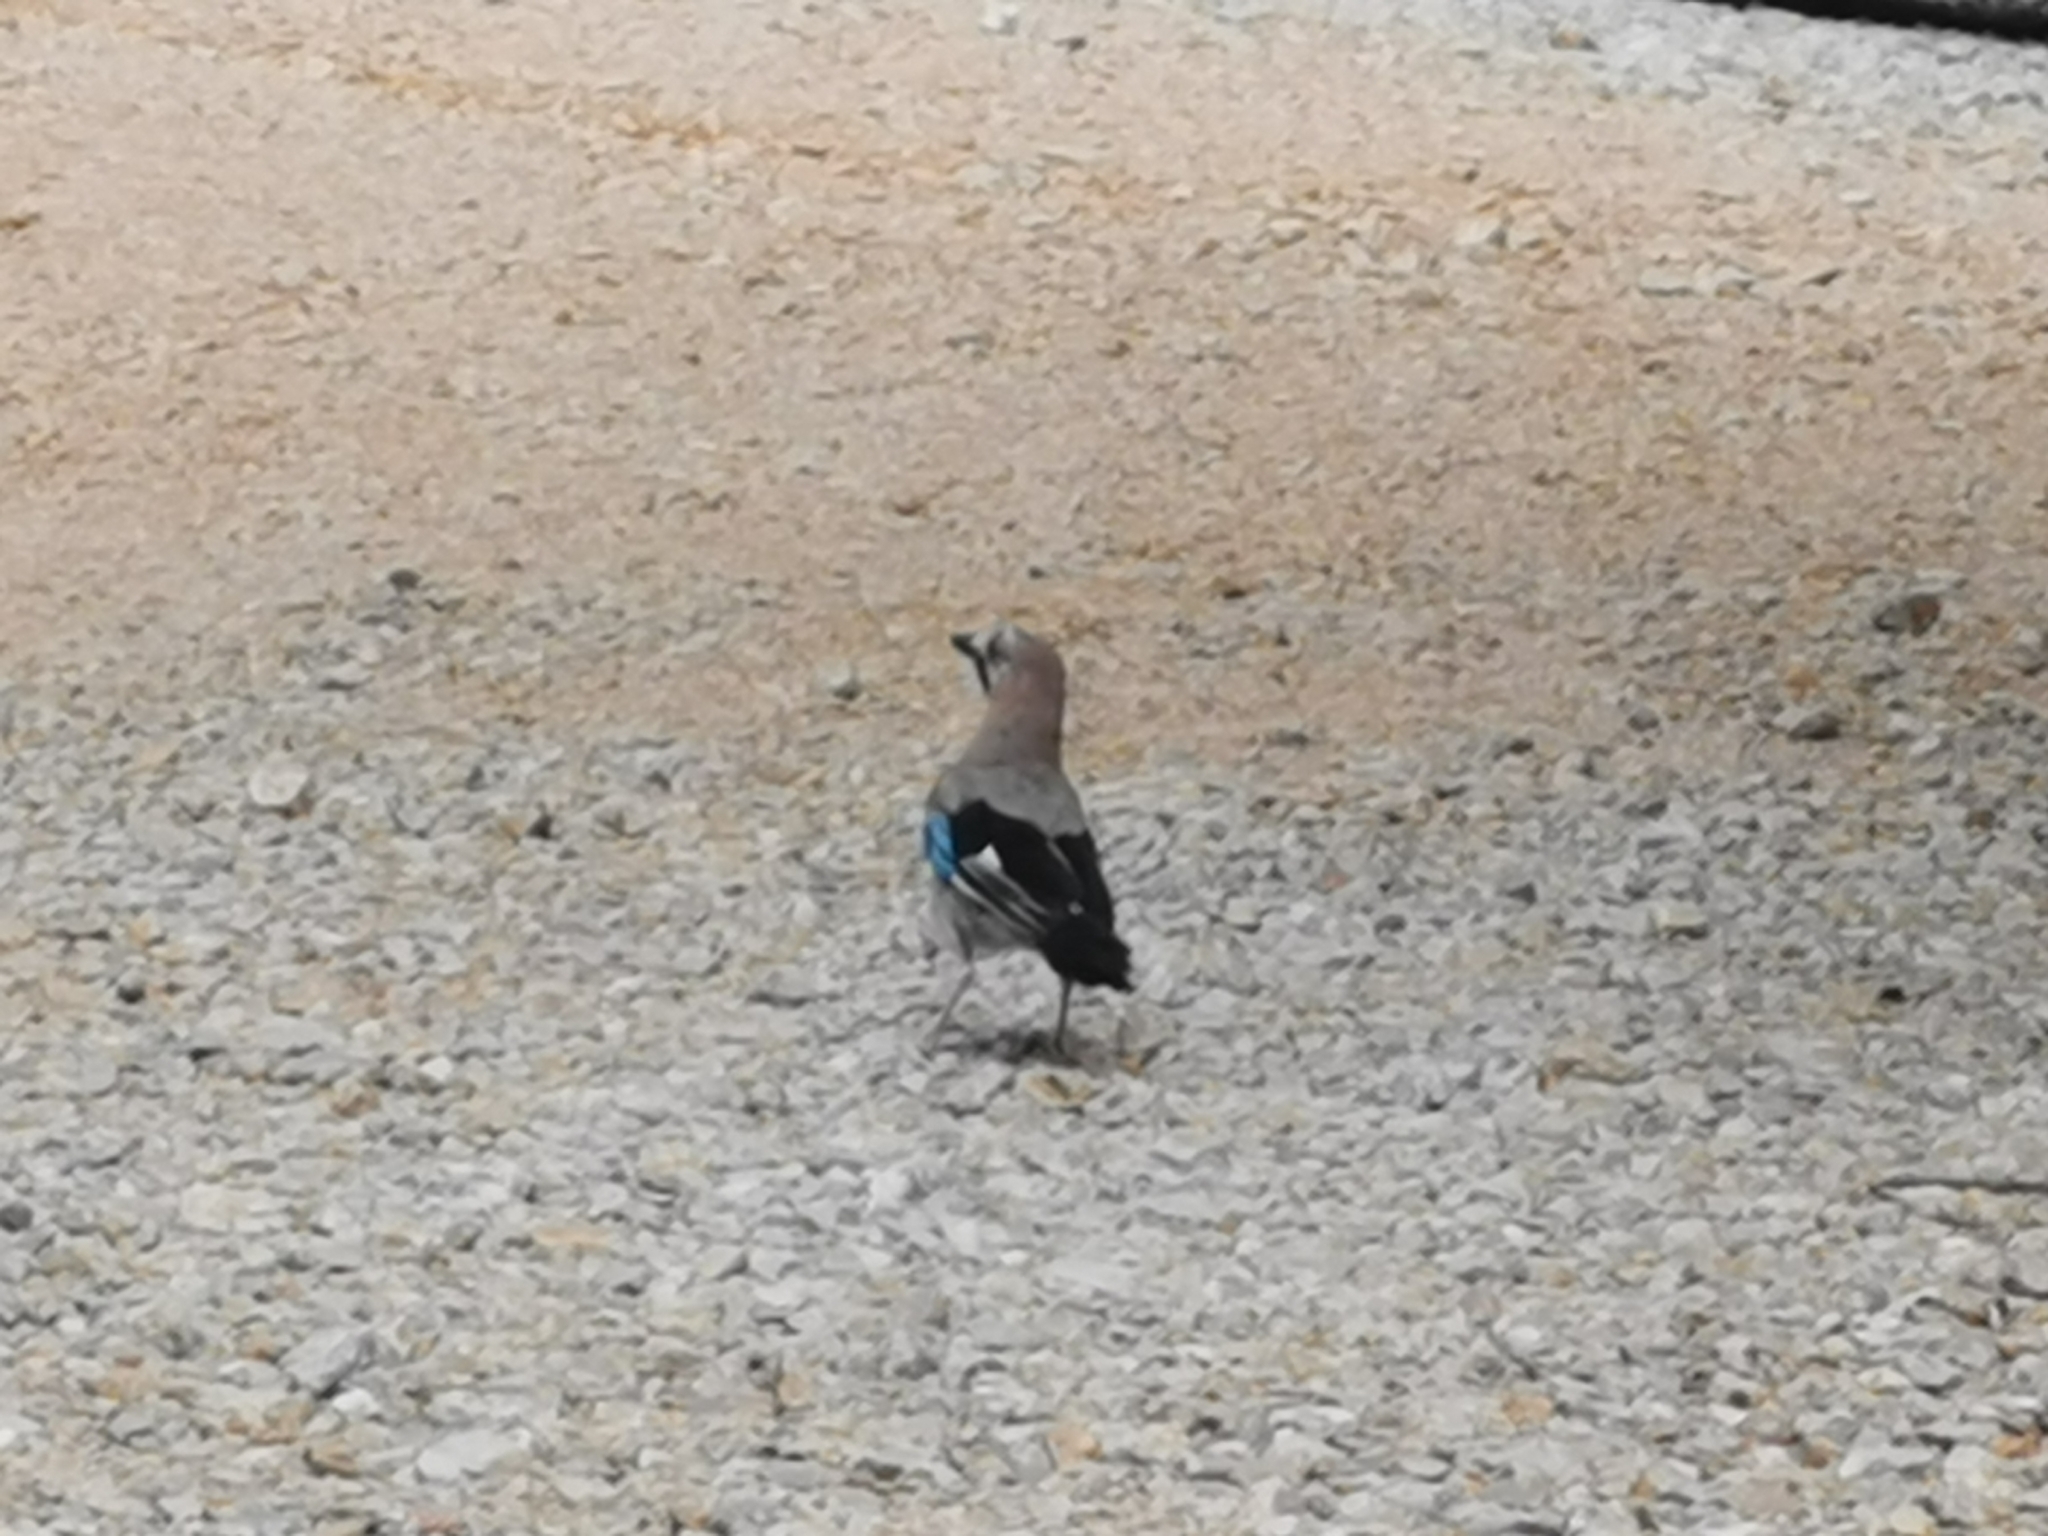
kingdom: Animalia
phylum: Chordata
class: Aves
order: Passeriformes
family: Corvidae
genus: Garrulus
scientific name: Garrulus glandarius
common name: Eurasian jay
